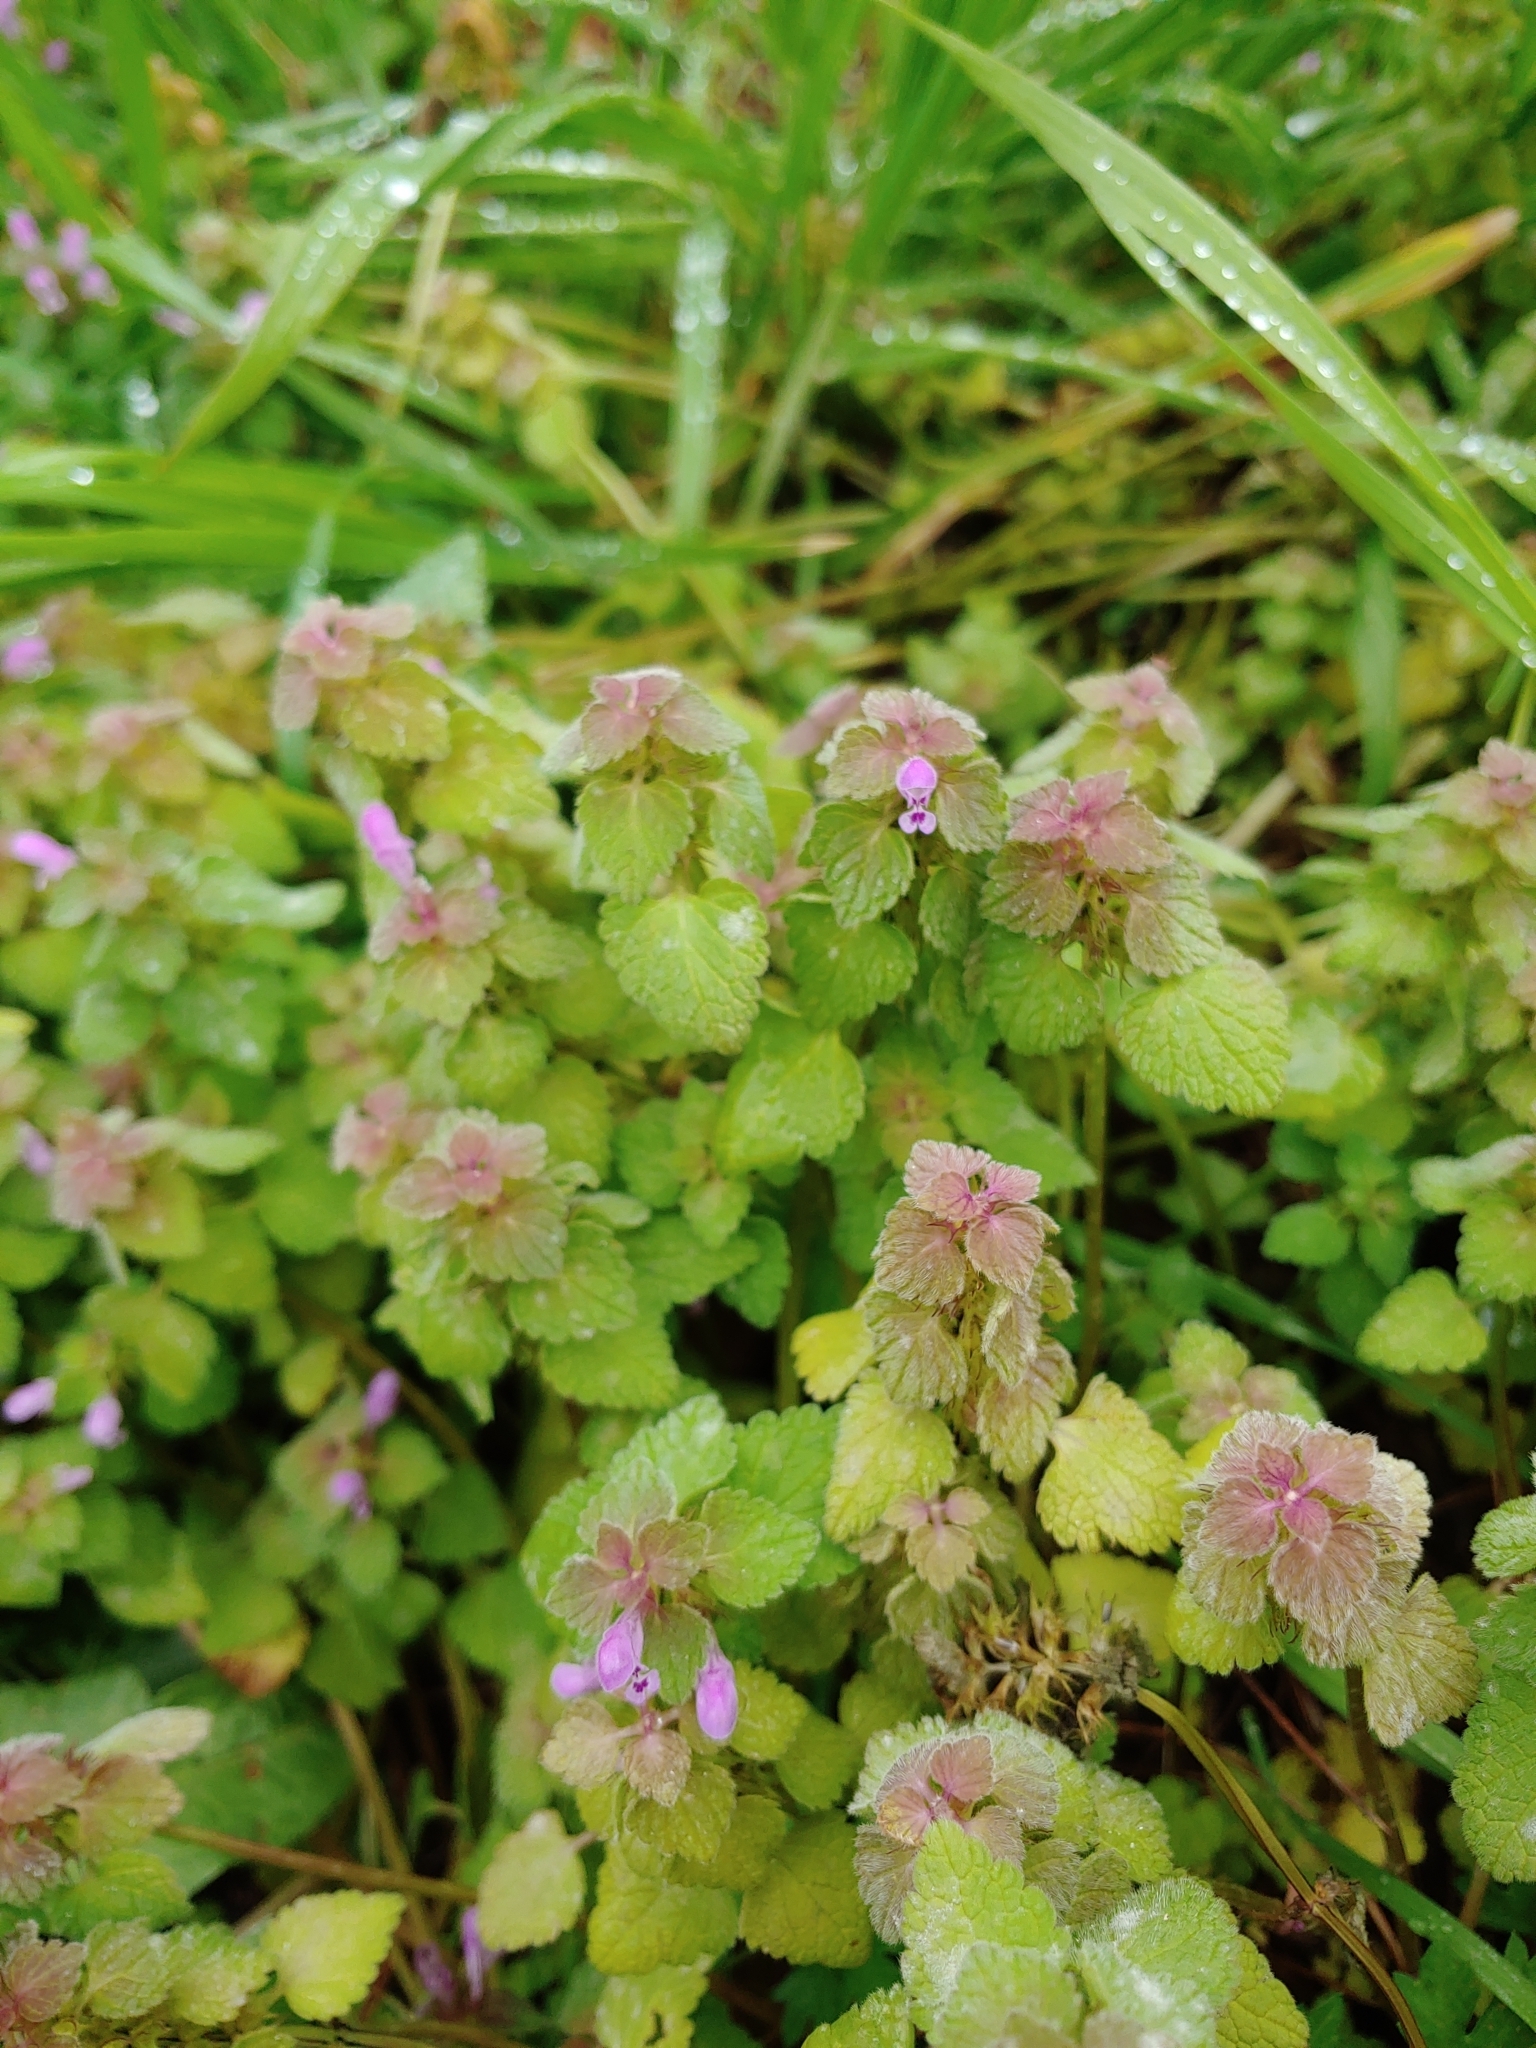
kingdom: Plantae
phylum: Tracheophyta
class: Magnoliopsida
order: Lamiales
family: Lamiaceae
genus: Lamium
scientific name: Lamium purpureum
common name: Red dead-nettle
